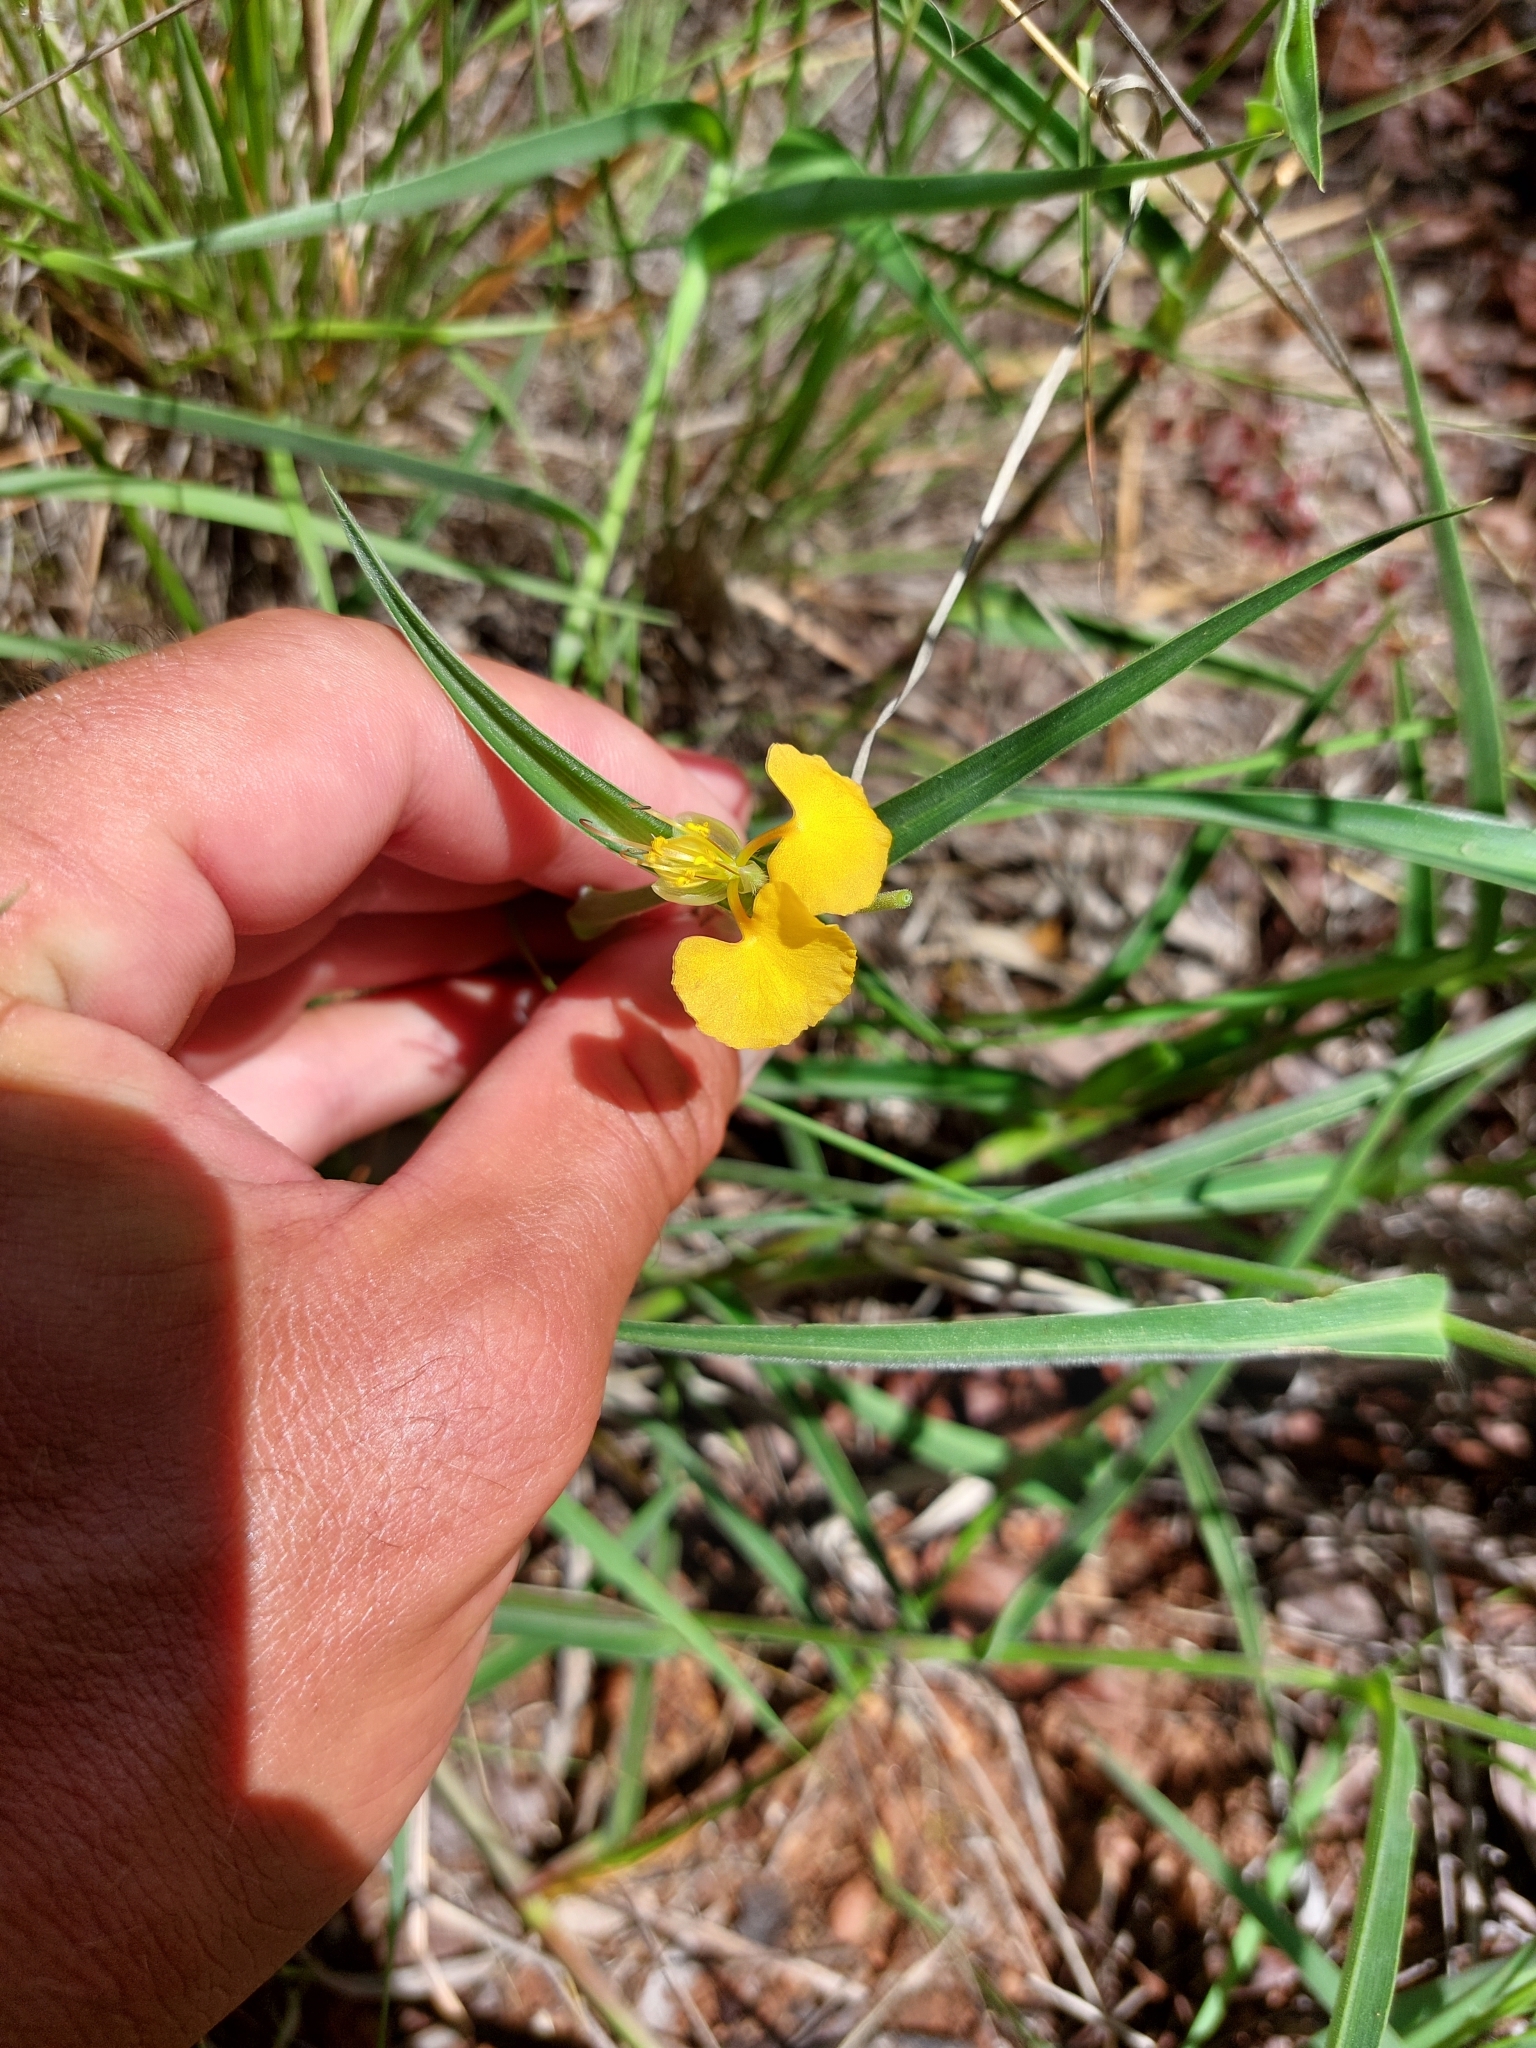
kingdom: Plantae
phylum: Tracheophyta
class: Liliopsida
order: Commelinales
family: Commelinaceae
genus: Commelina
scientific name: Commelina africana
